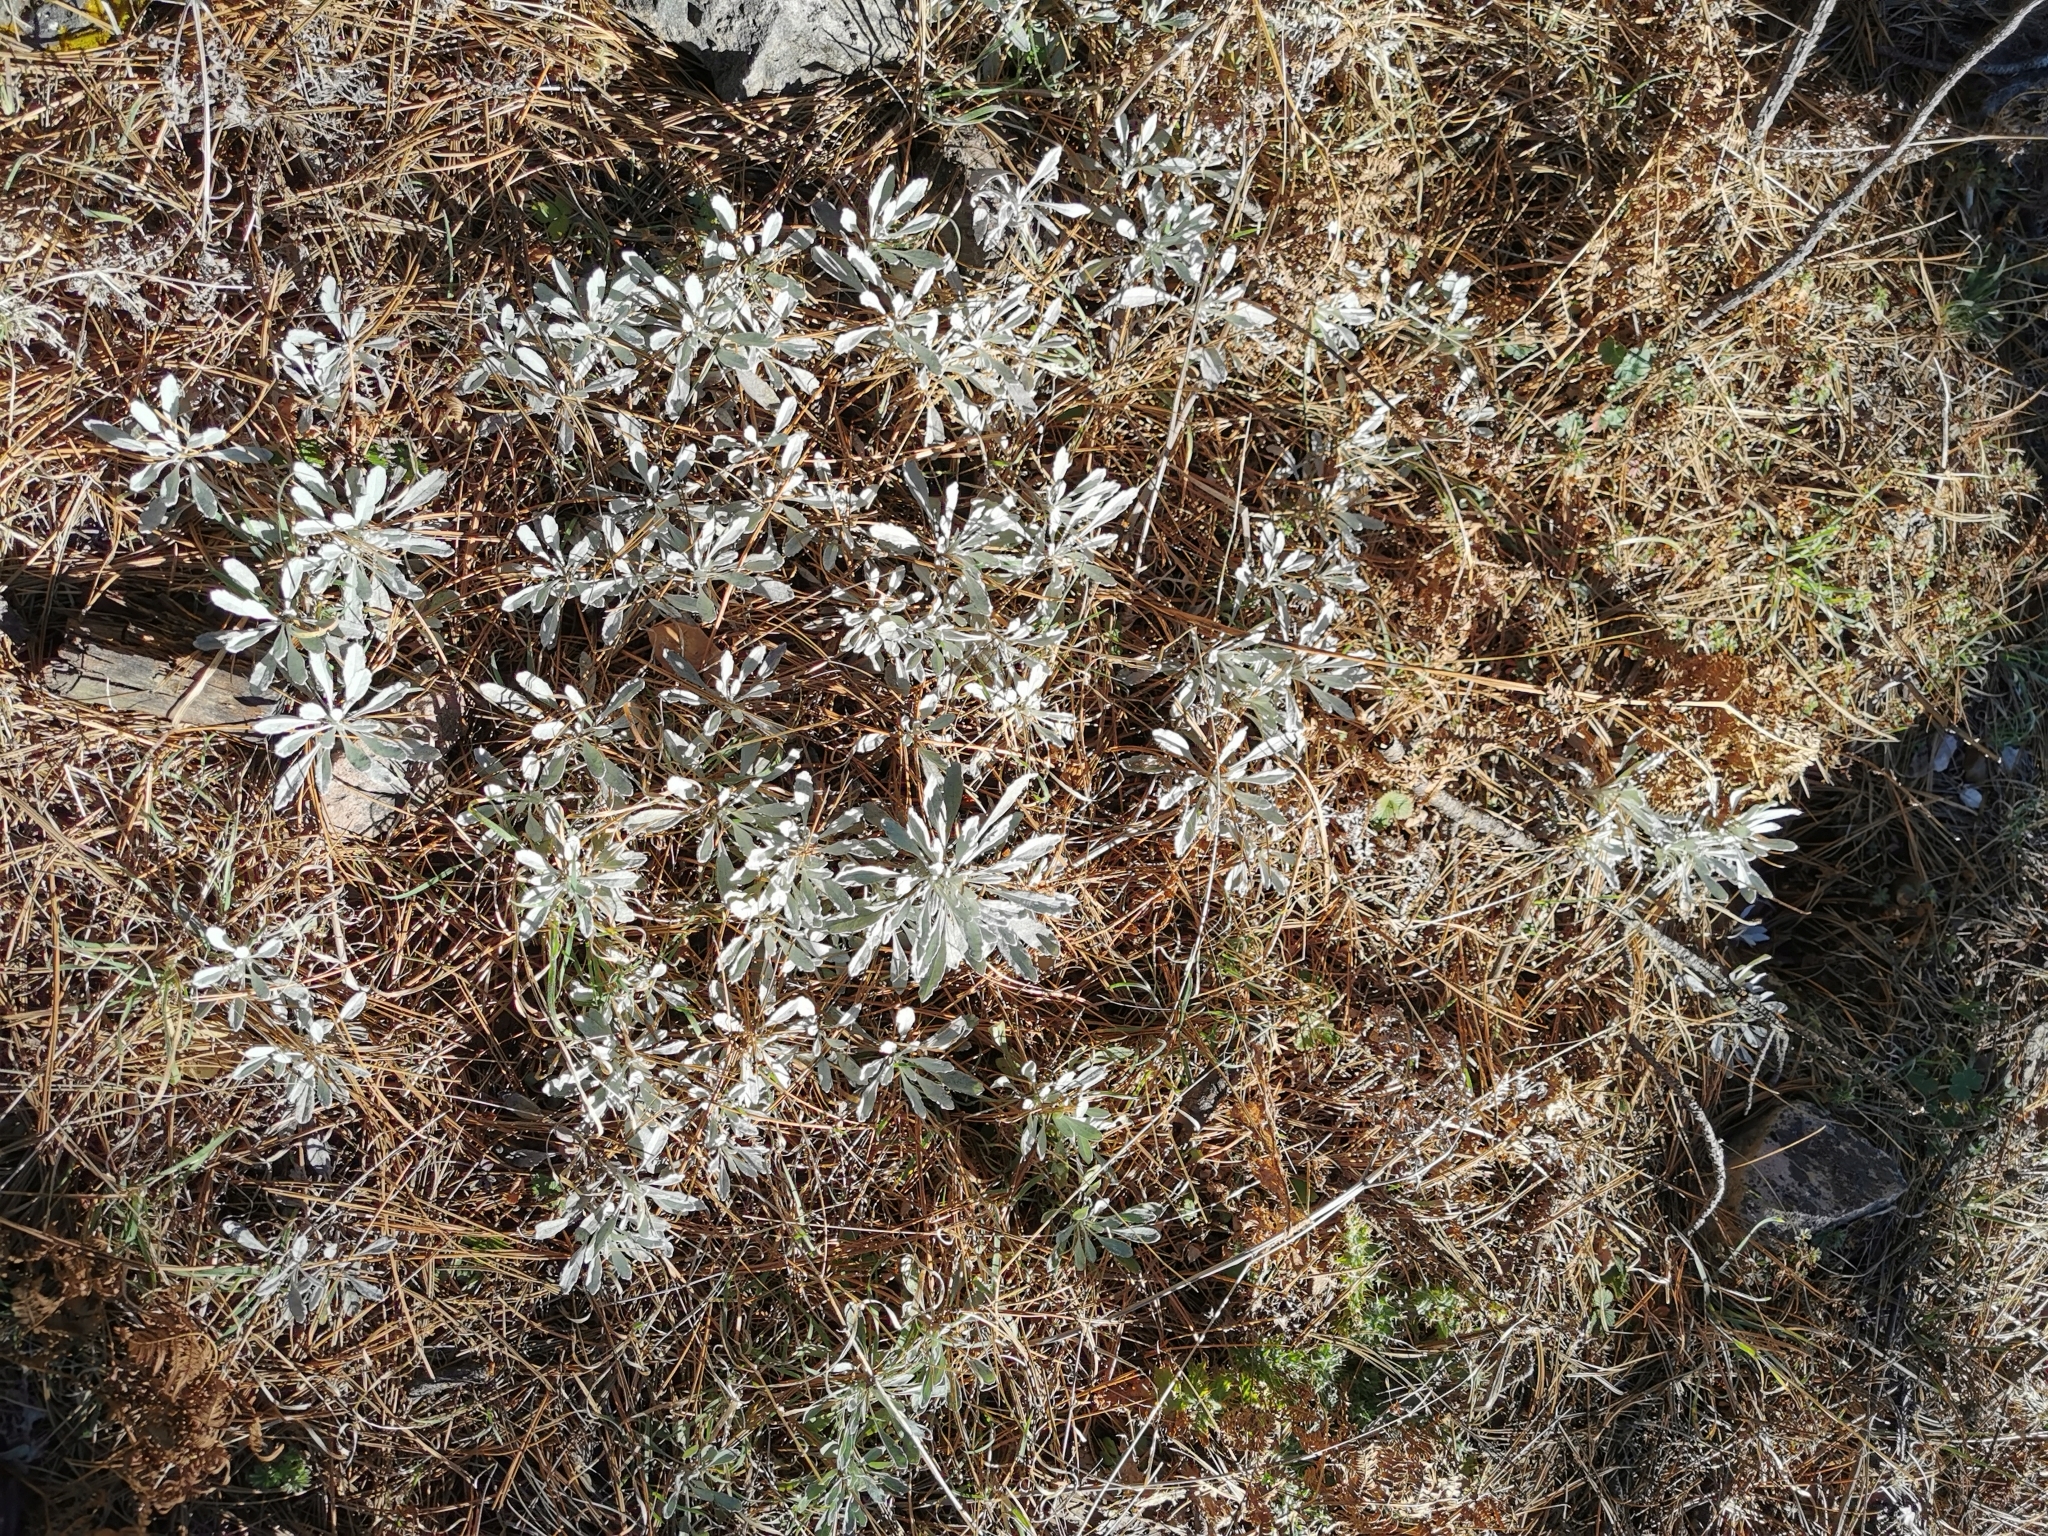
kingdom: Plantae
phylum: Tracheophyta
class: Magnoliopsida
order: Asterales
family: Asteraceae
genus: Packera
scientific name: Packera candidissima
